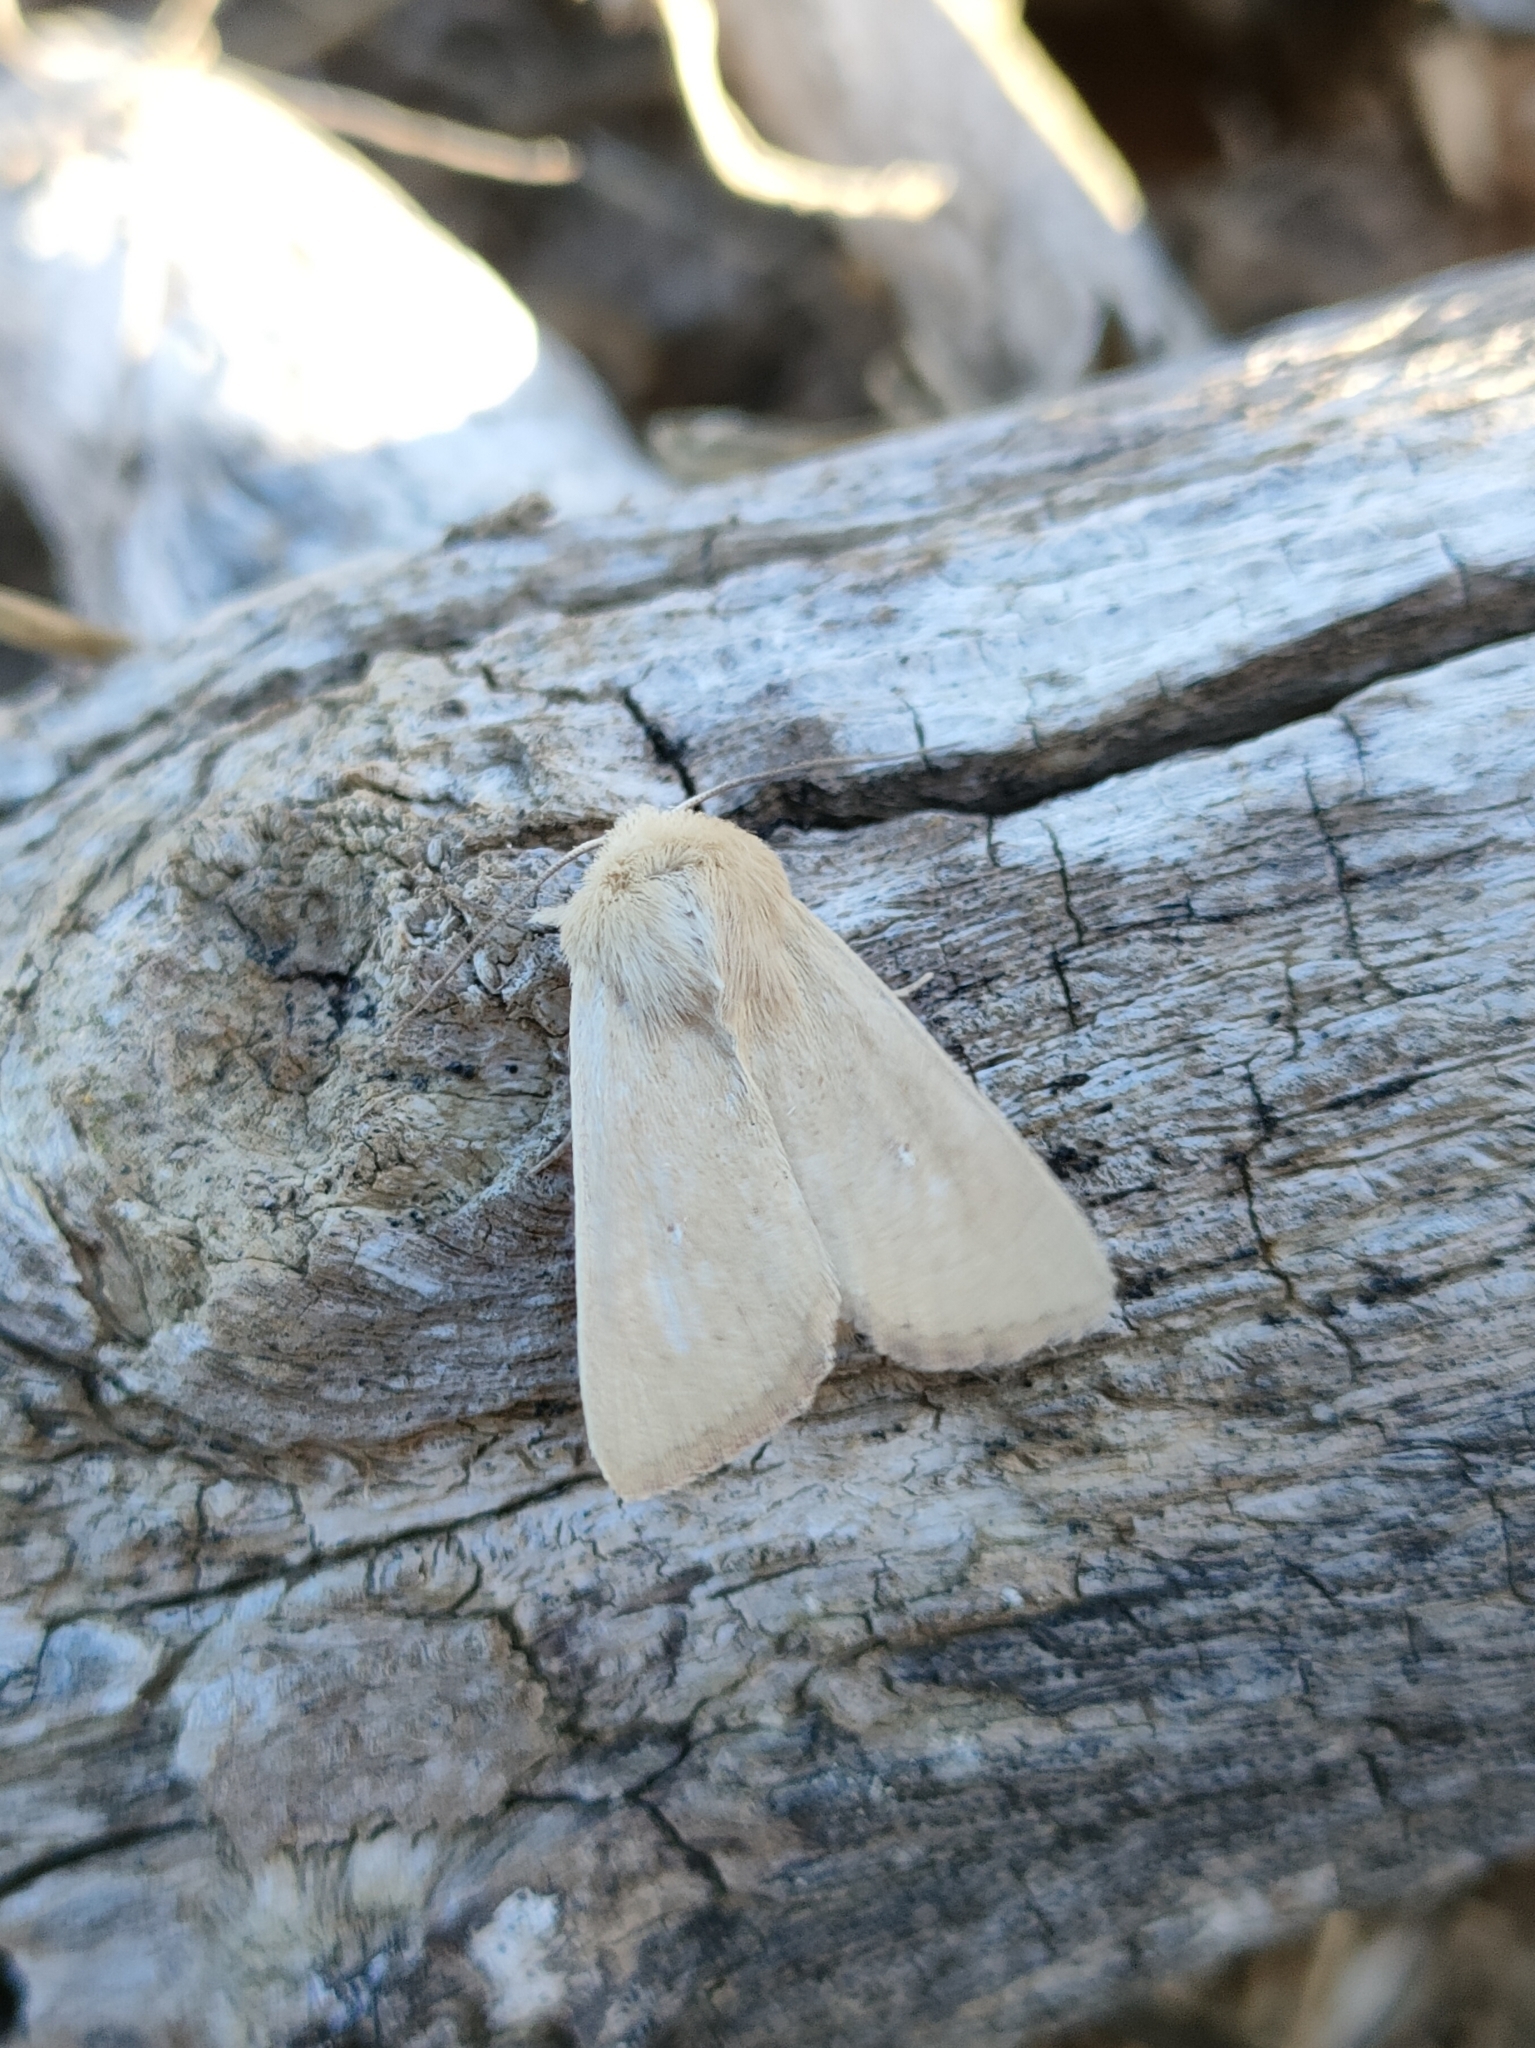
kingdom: Animalia
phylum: Arthropoda
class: Insecta
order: Lepidoptera
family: Noctuidae
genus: Mythimna
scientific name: Mythimna sicula
